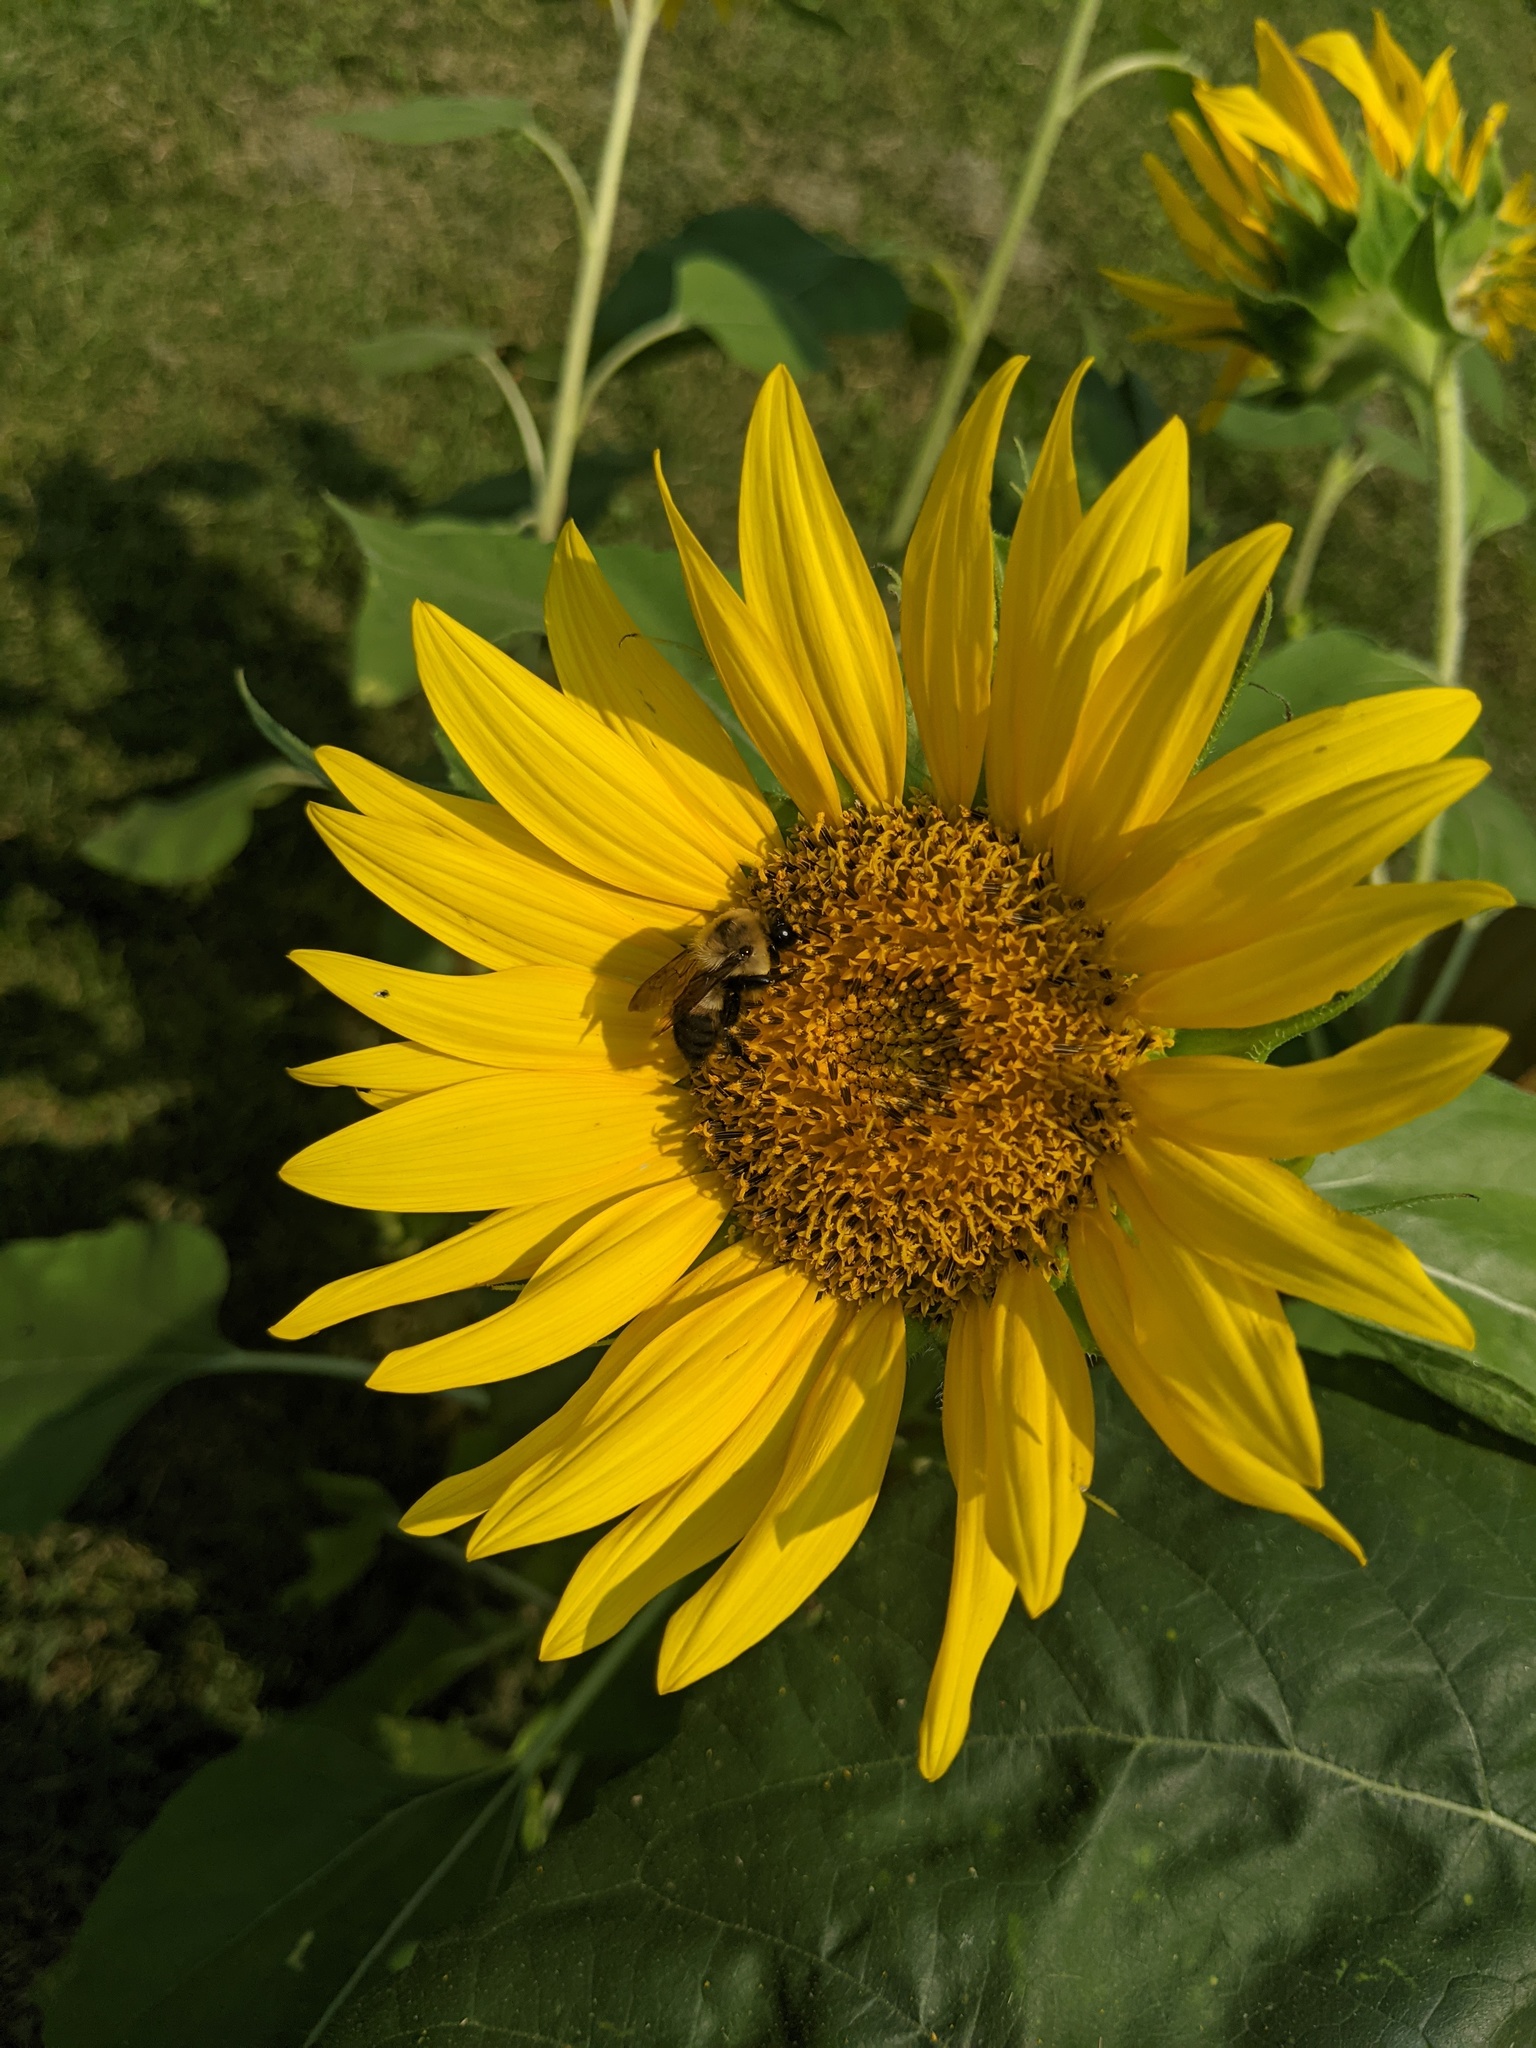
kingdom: Animalia
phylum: Arthropoda
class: Insecta
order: Hymenoptera
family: Apidae
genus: Bombus
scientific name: Bombus griseocollis
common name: Brown-belted bumble bee
